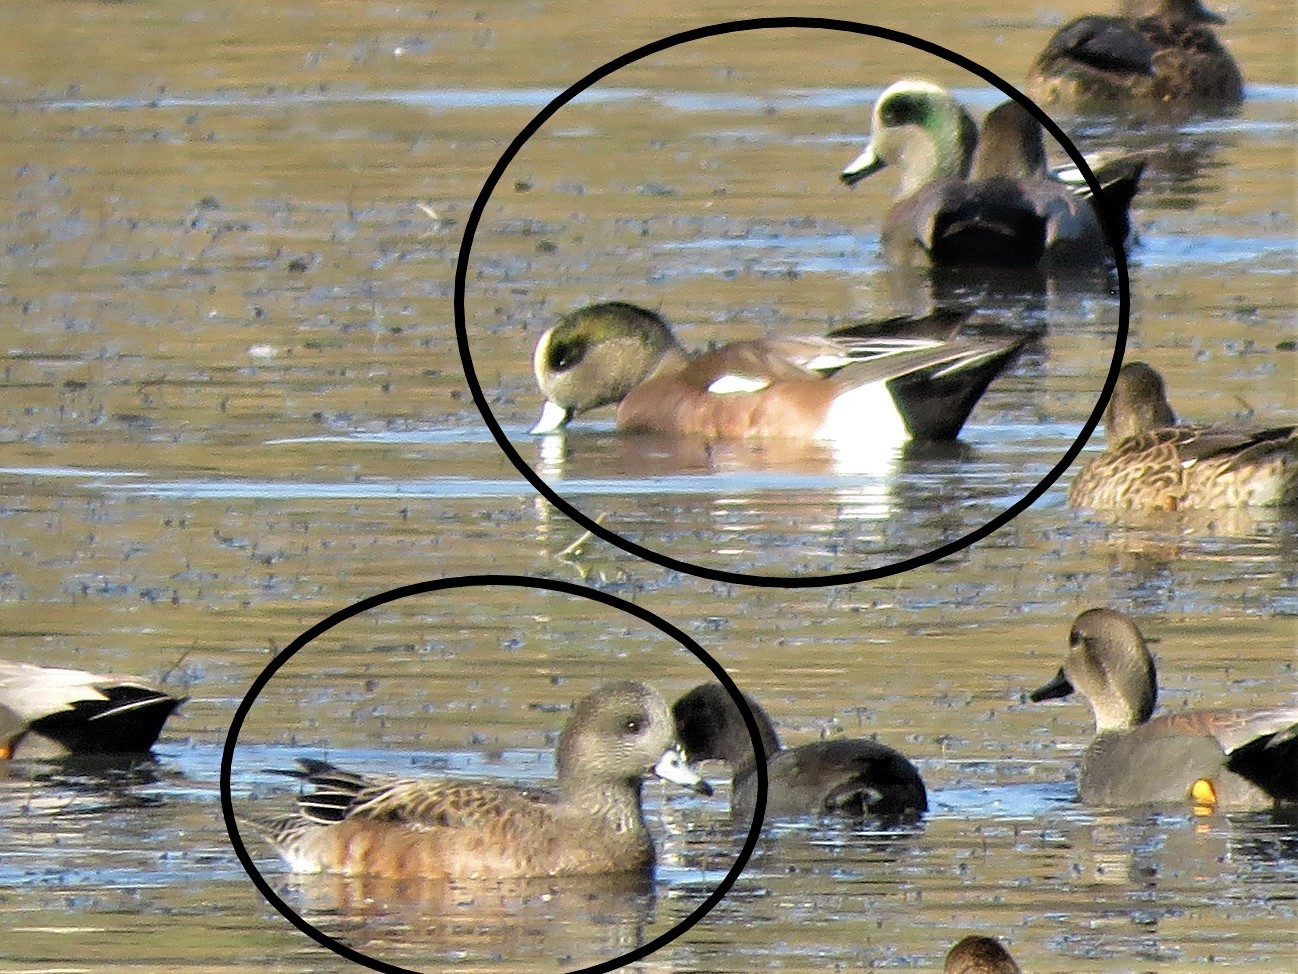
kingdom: Animalia
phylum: Chordata
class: Aves
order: Anseriformes
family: Anatidae
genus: Mareca
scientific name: Mareca americana
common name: American wigeon
